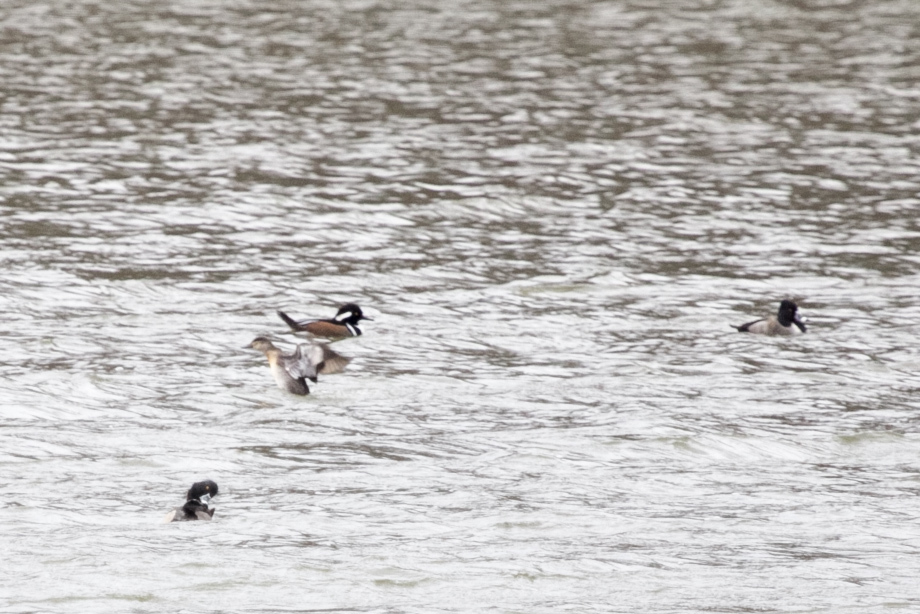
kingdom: Animalia
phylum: Chordata
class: Aves
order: Anseriformes
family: Anatidae
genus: Lophodytes
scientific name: Lophodytes cucullatus
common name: Hooded merganser
